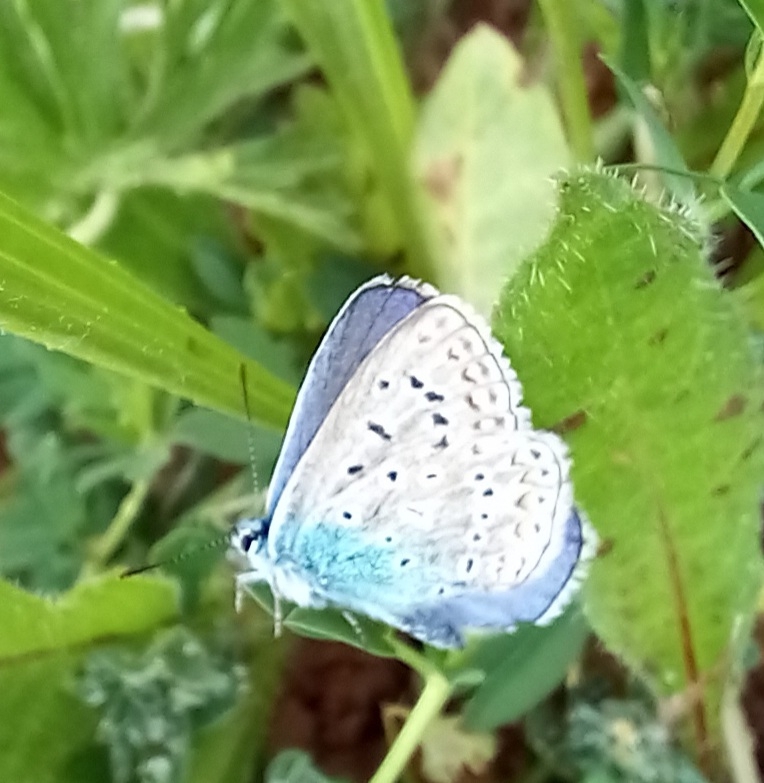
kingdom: Animalia
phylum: Arthropoda
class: Insecta
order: Lepidoptera
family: Lycaenidae
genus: Polyommatus
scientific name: Polyommatus icarus
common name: Common blue
